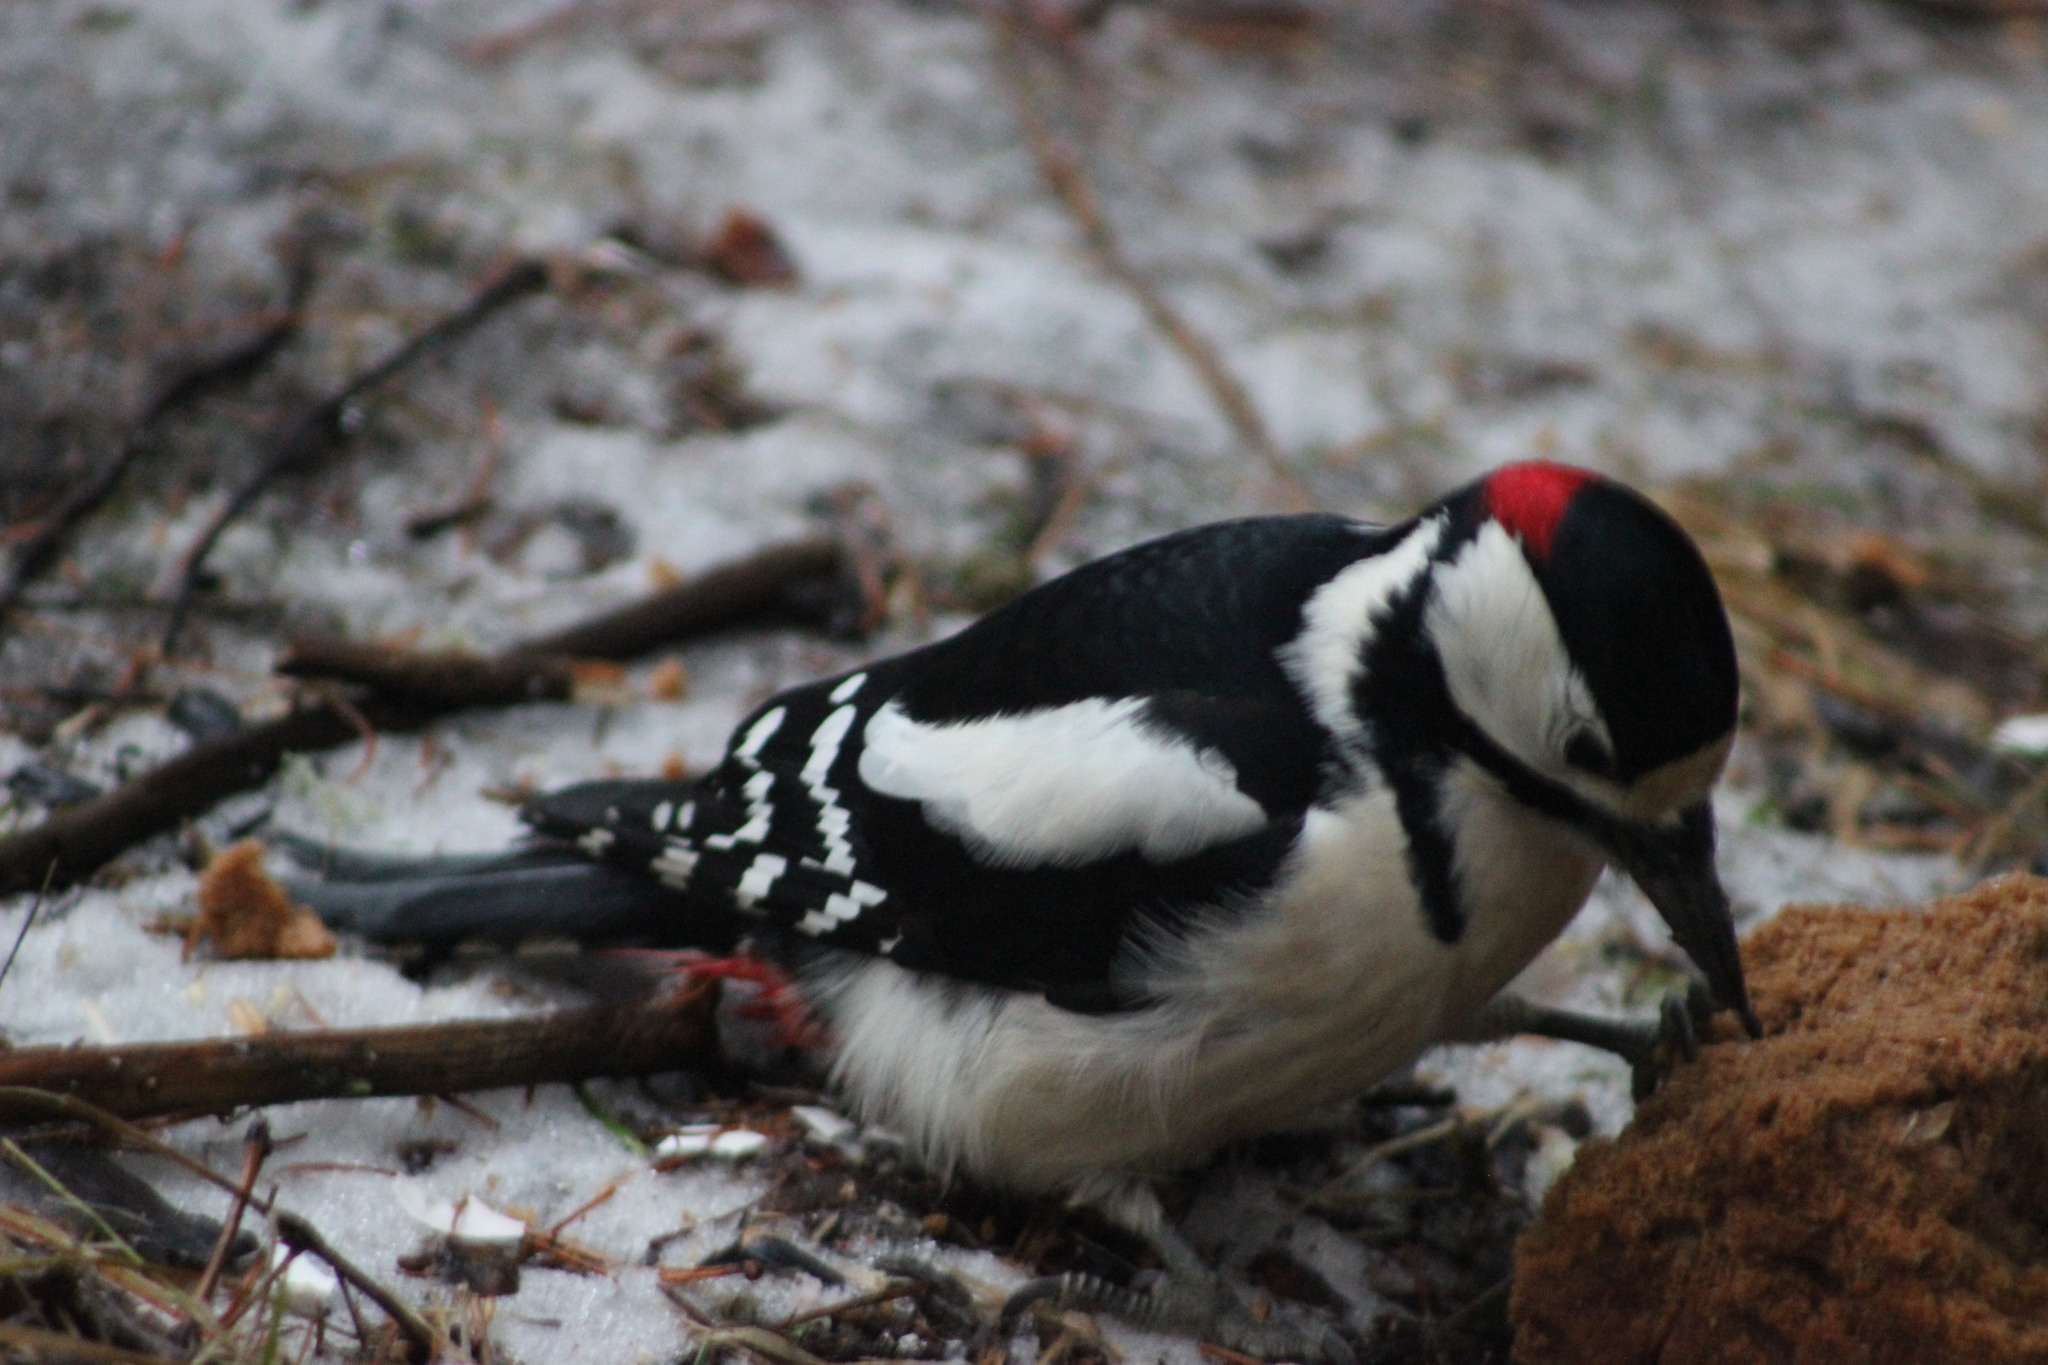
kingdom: Animalia
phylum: Chordata
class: Aves
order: Piciformes
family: Picidae
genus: Dendrocopos
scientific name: Dendrocopos major
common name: Great spotted woodpecker
